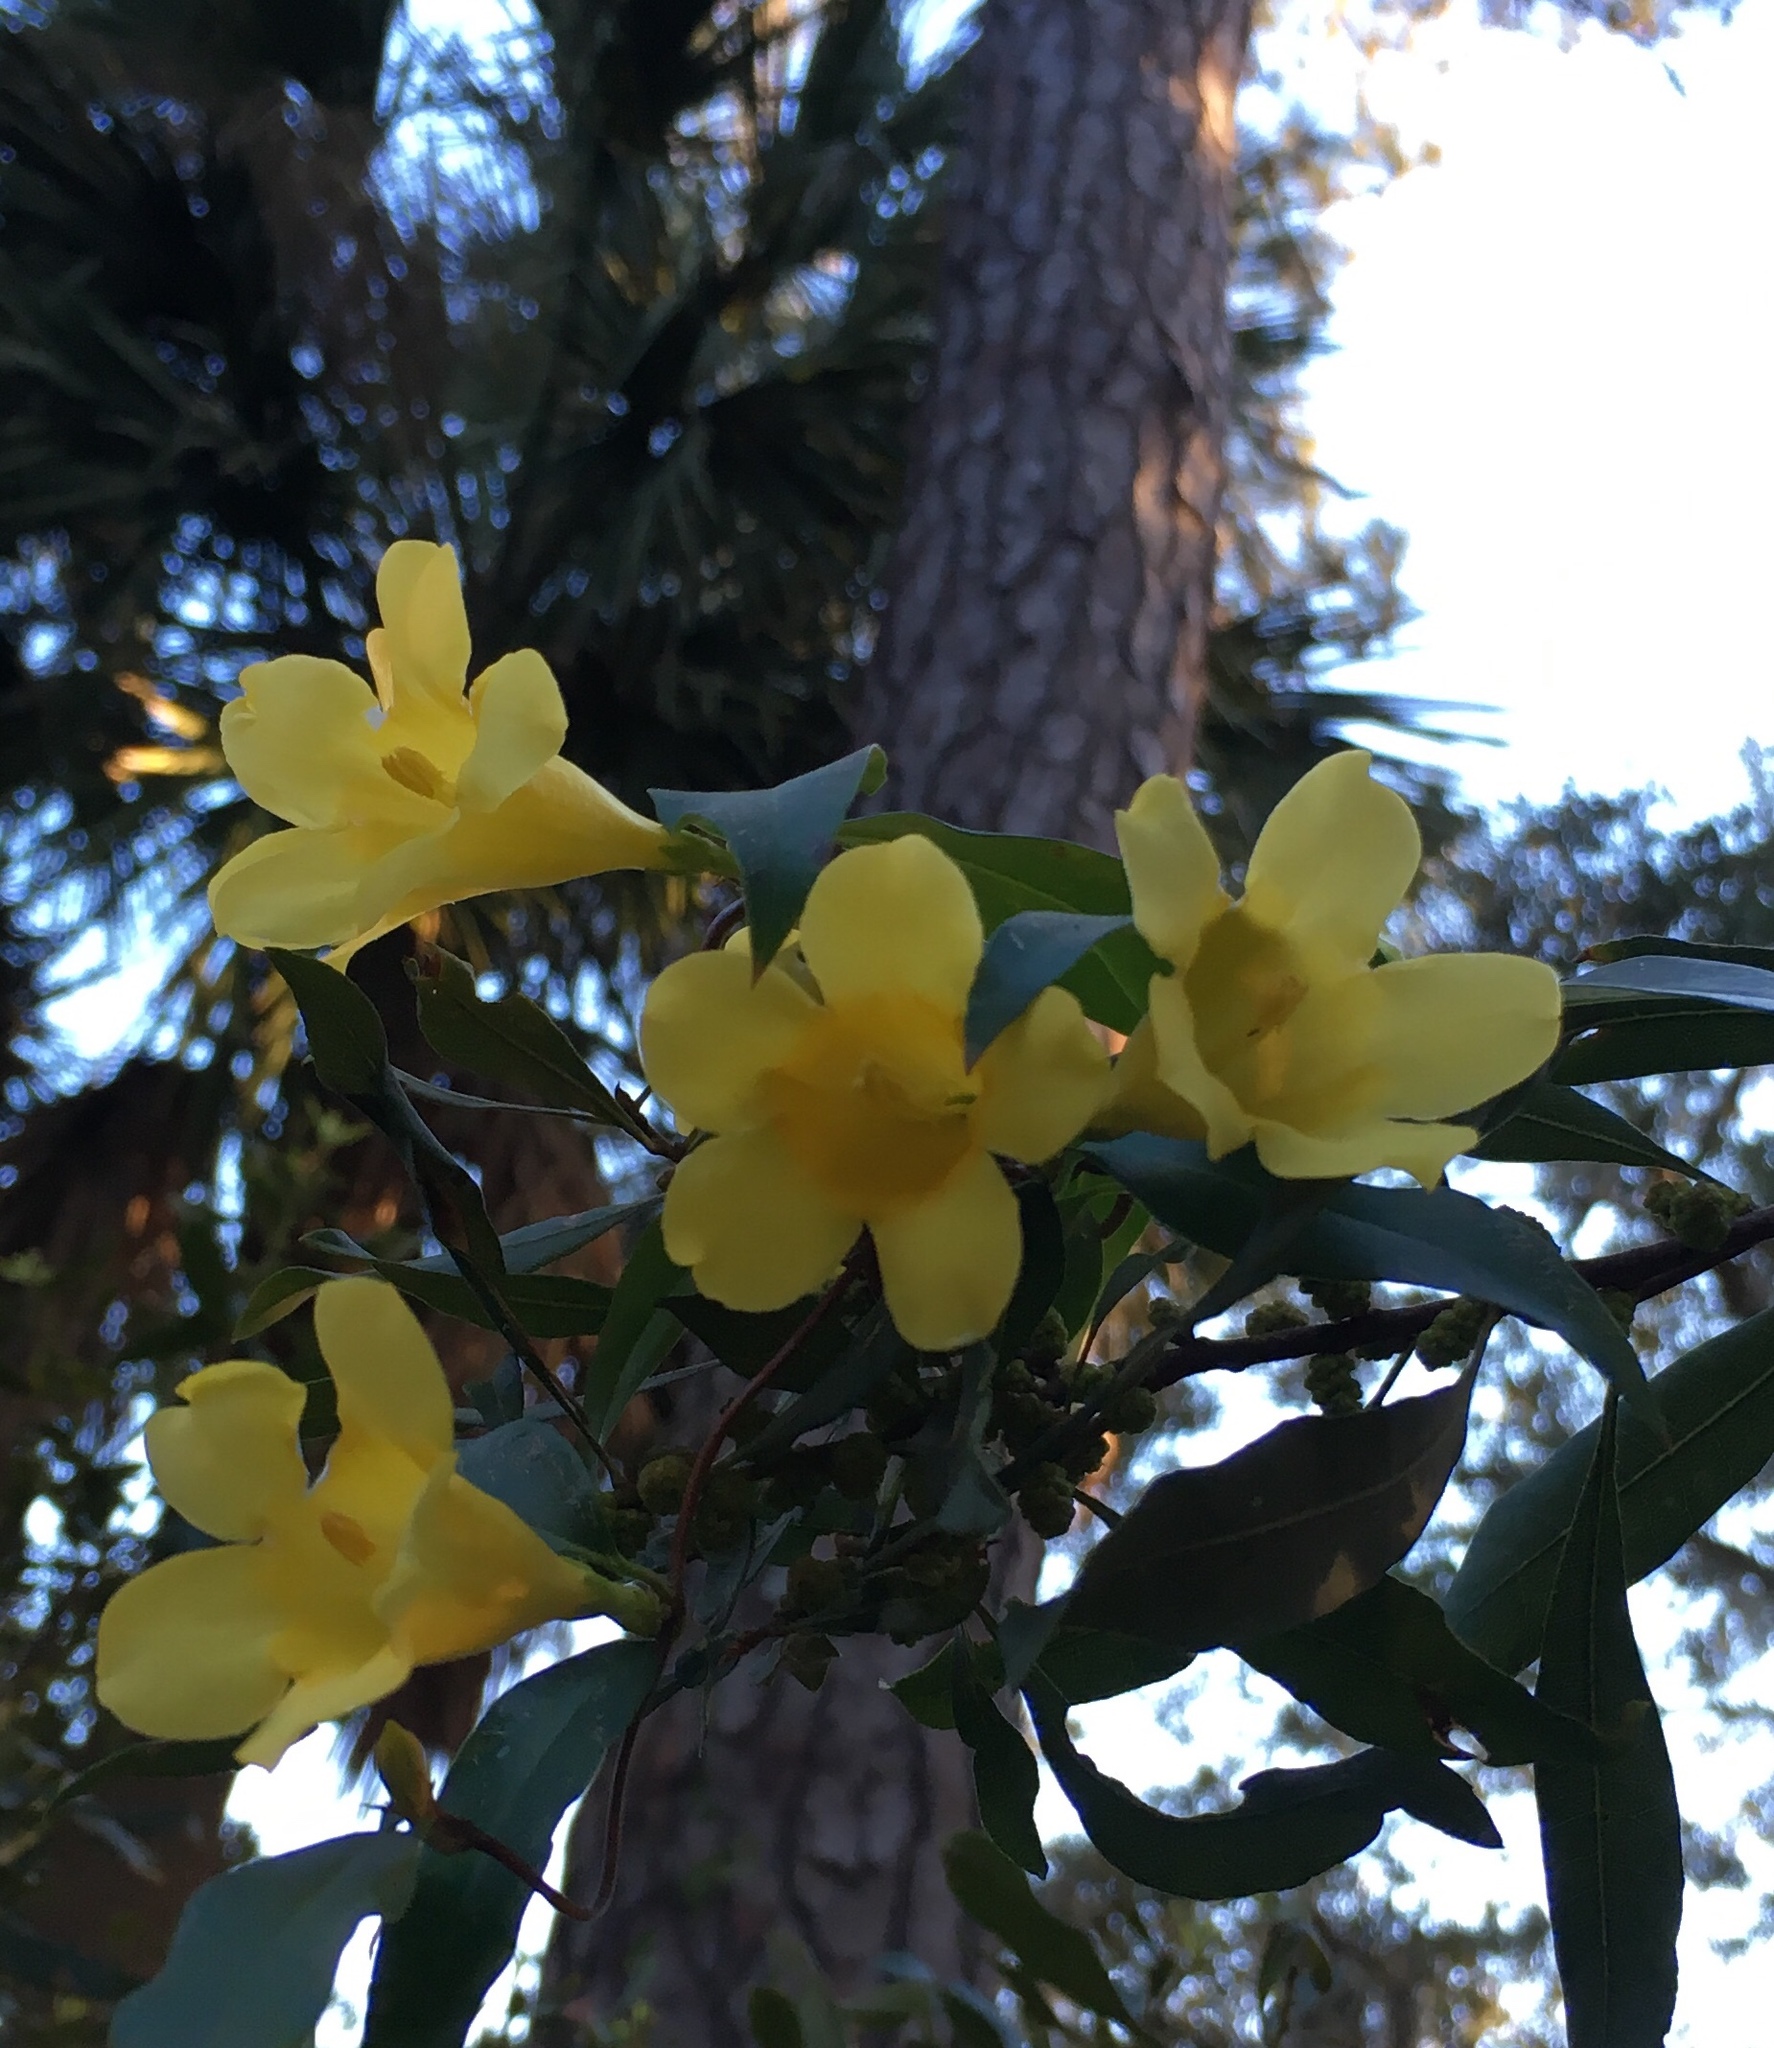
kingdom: Plantae
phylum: Tracheophyta
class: Magnoliopsida
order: Gentianales
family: Gelsemiaceae
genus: Gelsemium
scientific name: Gelsemium sempervirens
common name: Carolina-jasmine
